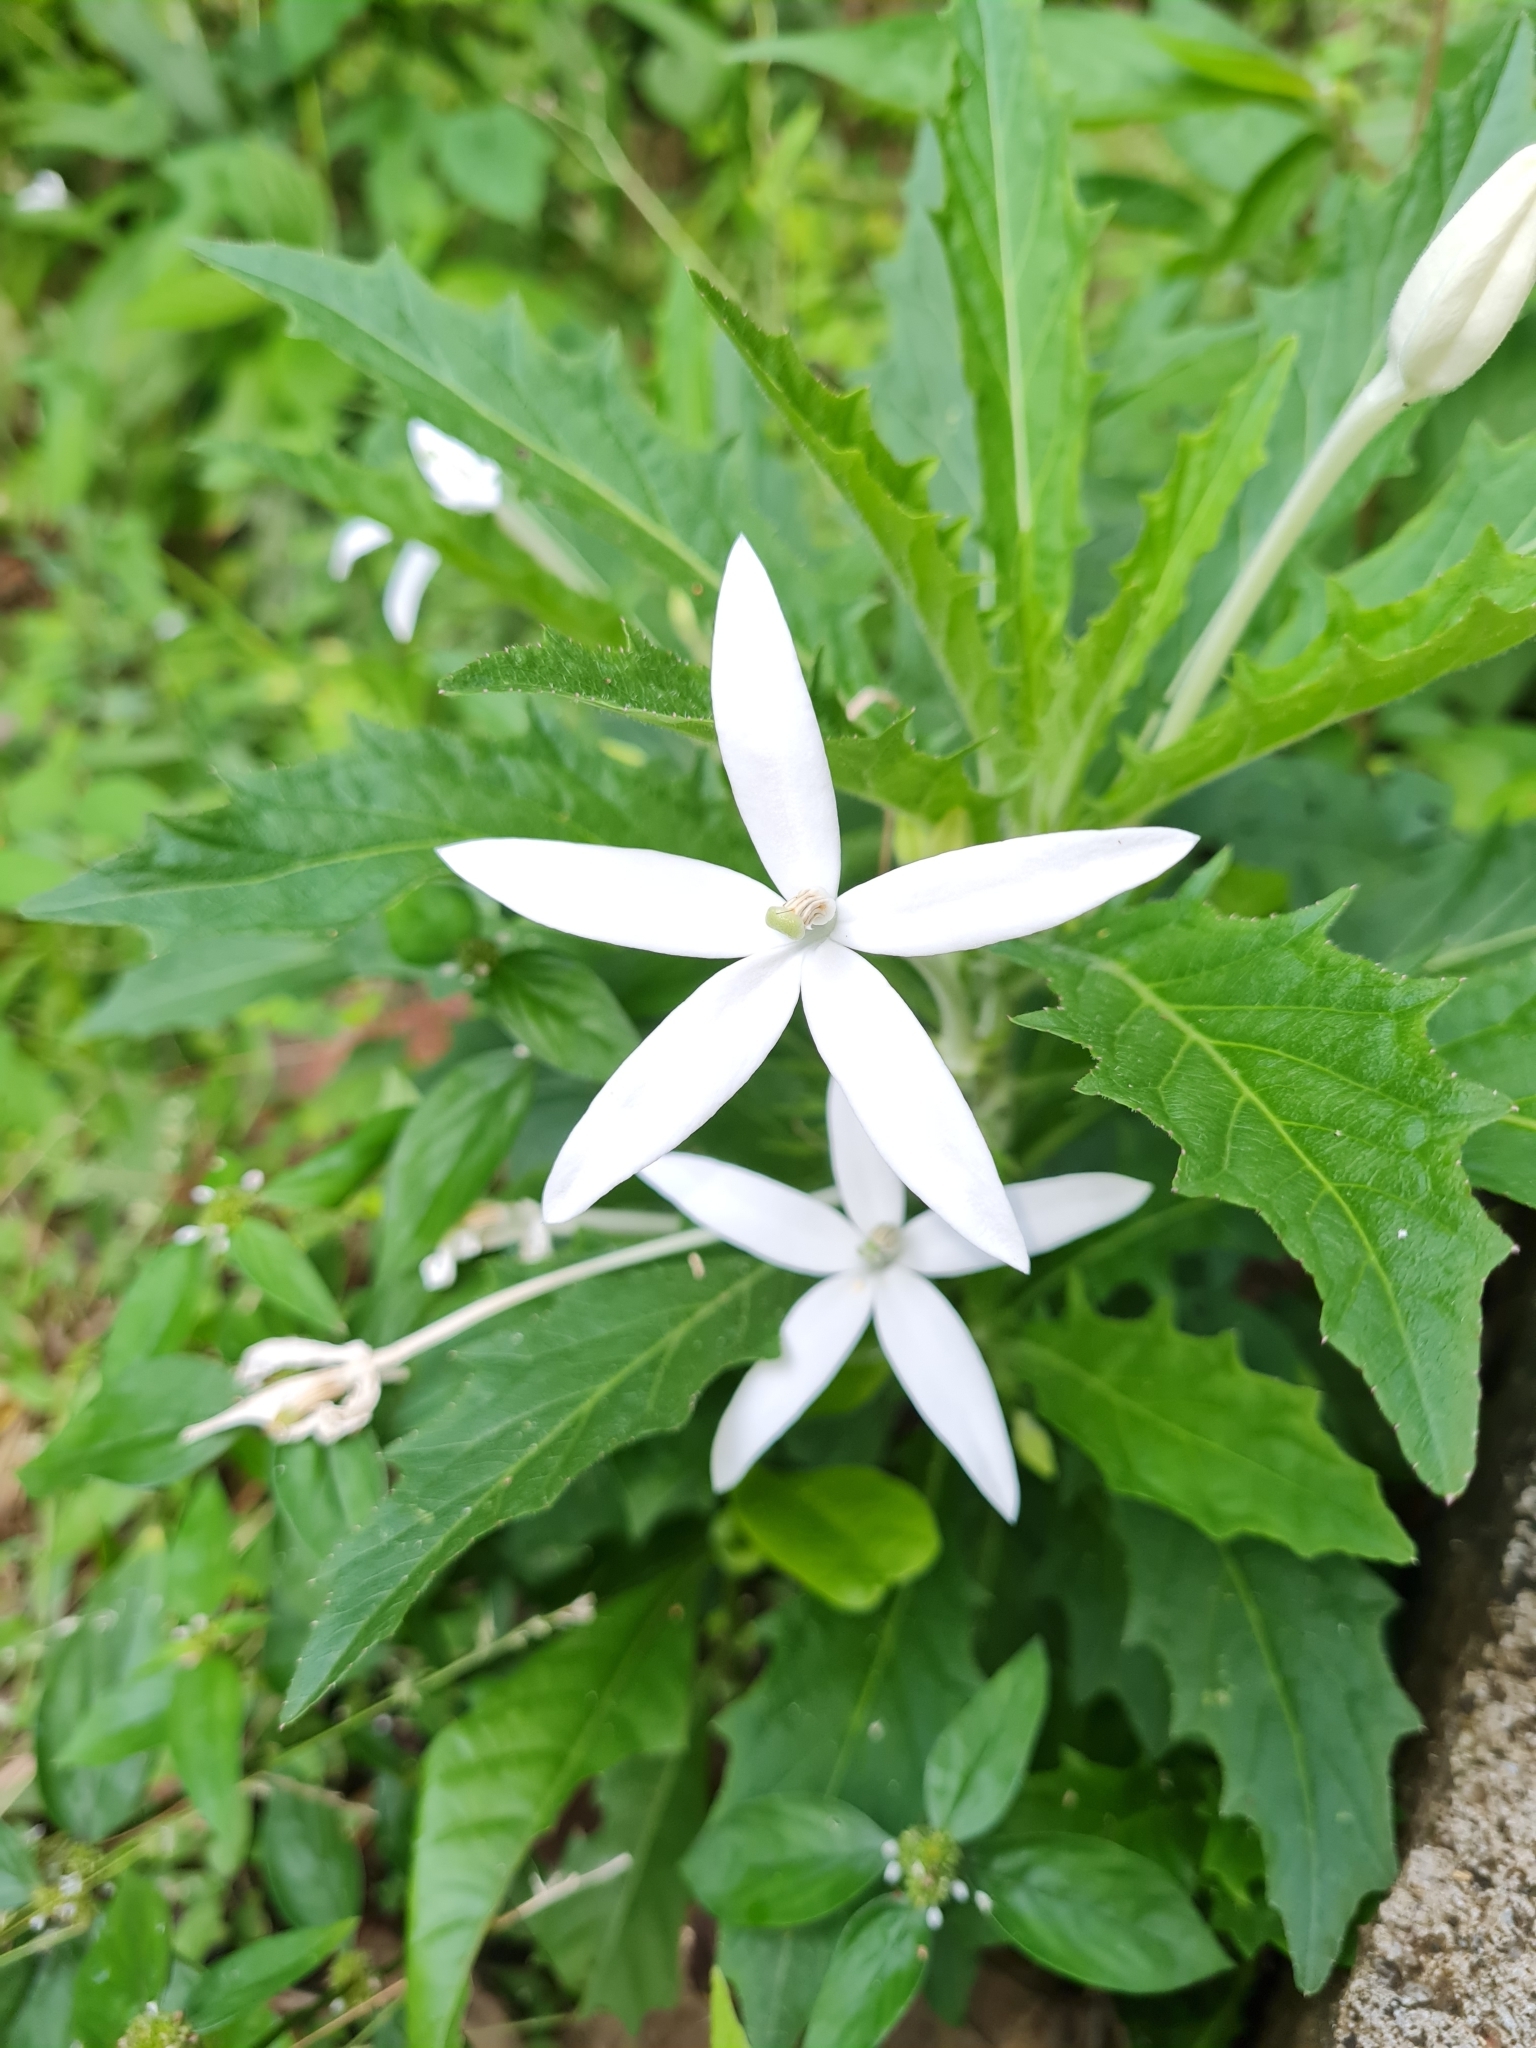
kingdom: Plantae
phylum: Tracheophyta
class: Magnoliopsida
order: Asterales
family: Campanulaceae
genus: Hippobroma
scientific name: Hippobroma longiflora
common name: Madamfate
